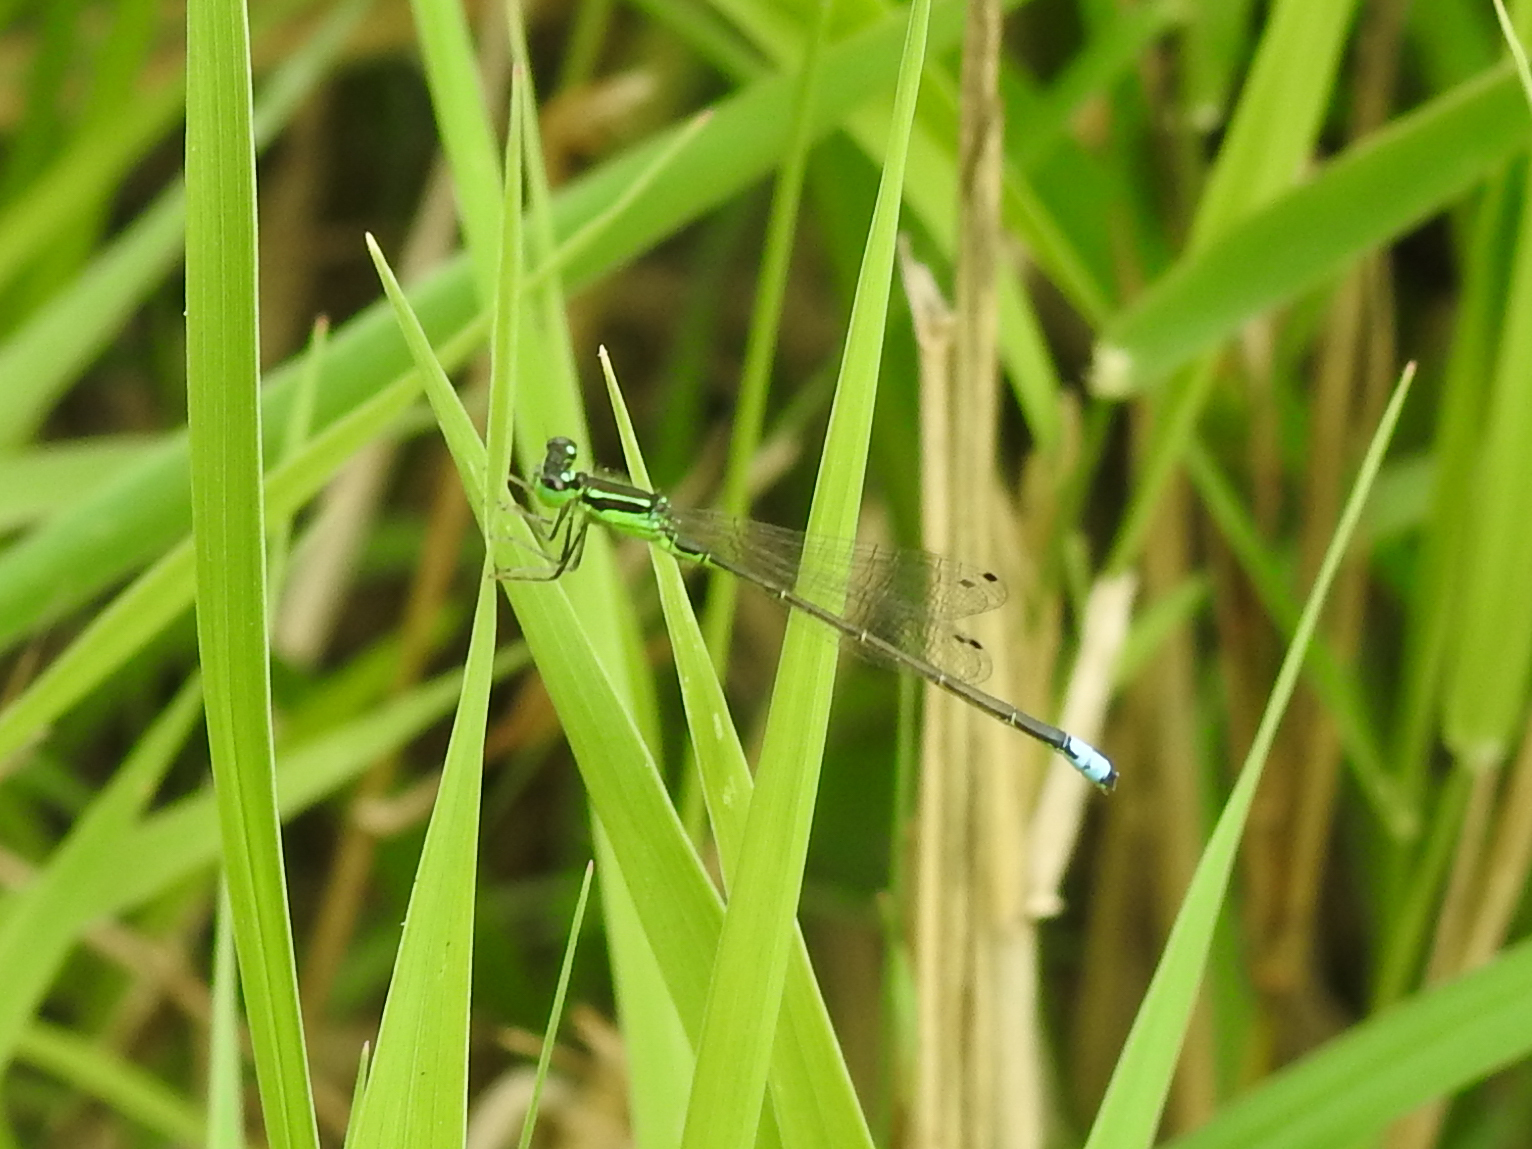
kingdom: Animalia
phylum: Arthropoda
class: Insecta
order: Odonata
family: Coenagrionidae
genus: Ischnura
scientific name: Ischnura verticalis
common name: Eastern forktail
